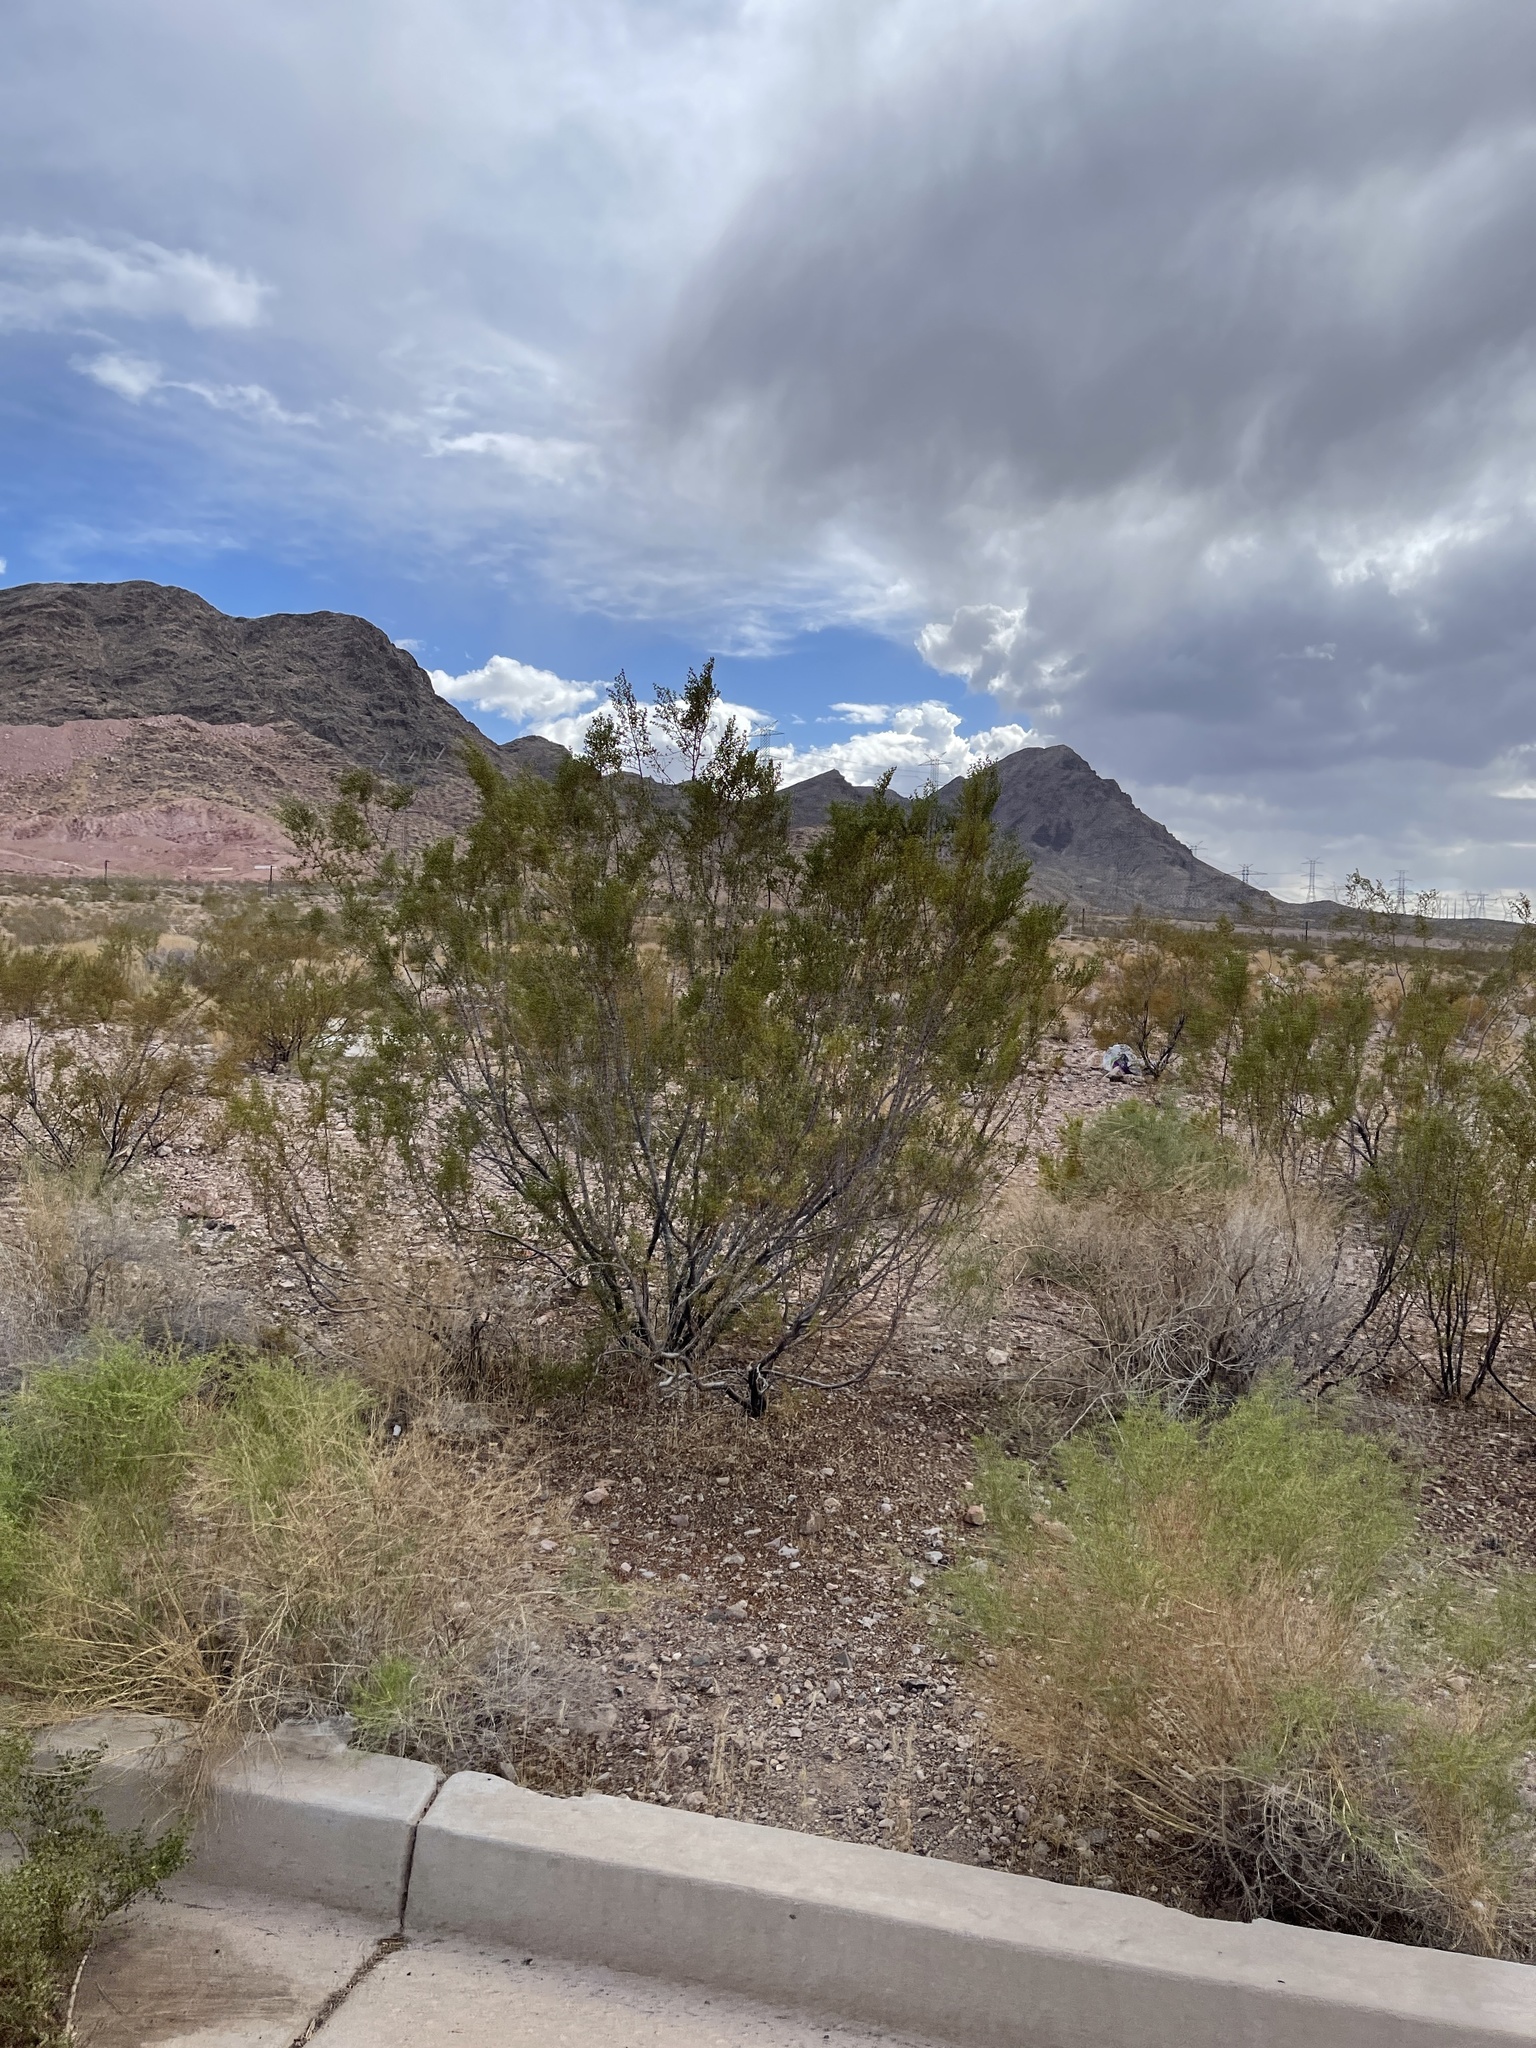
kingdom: Plantae
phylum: Tracheophyta
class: Magnoliopsida
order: Zygophyllales
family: Zygophyllaceae
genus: Larrea
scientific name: Larrea tridentata
